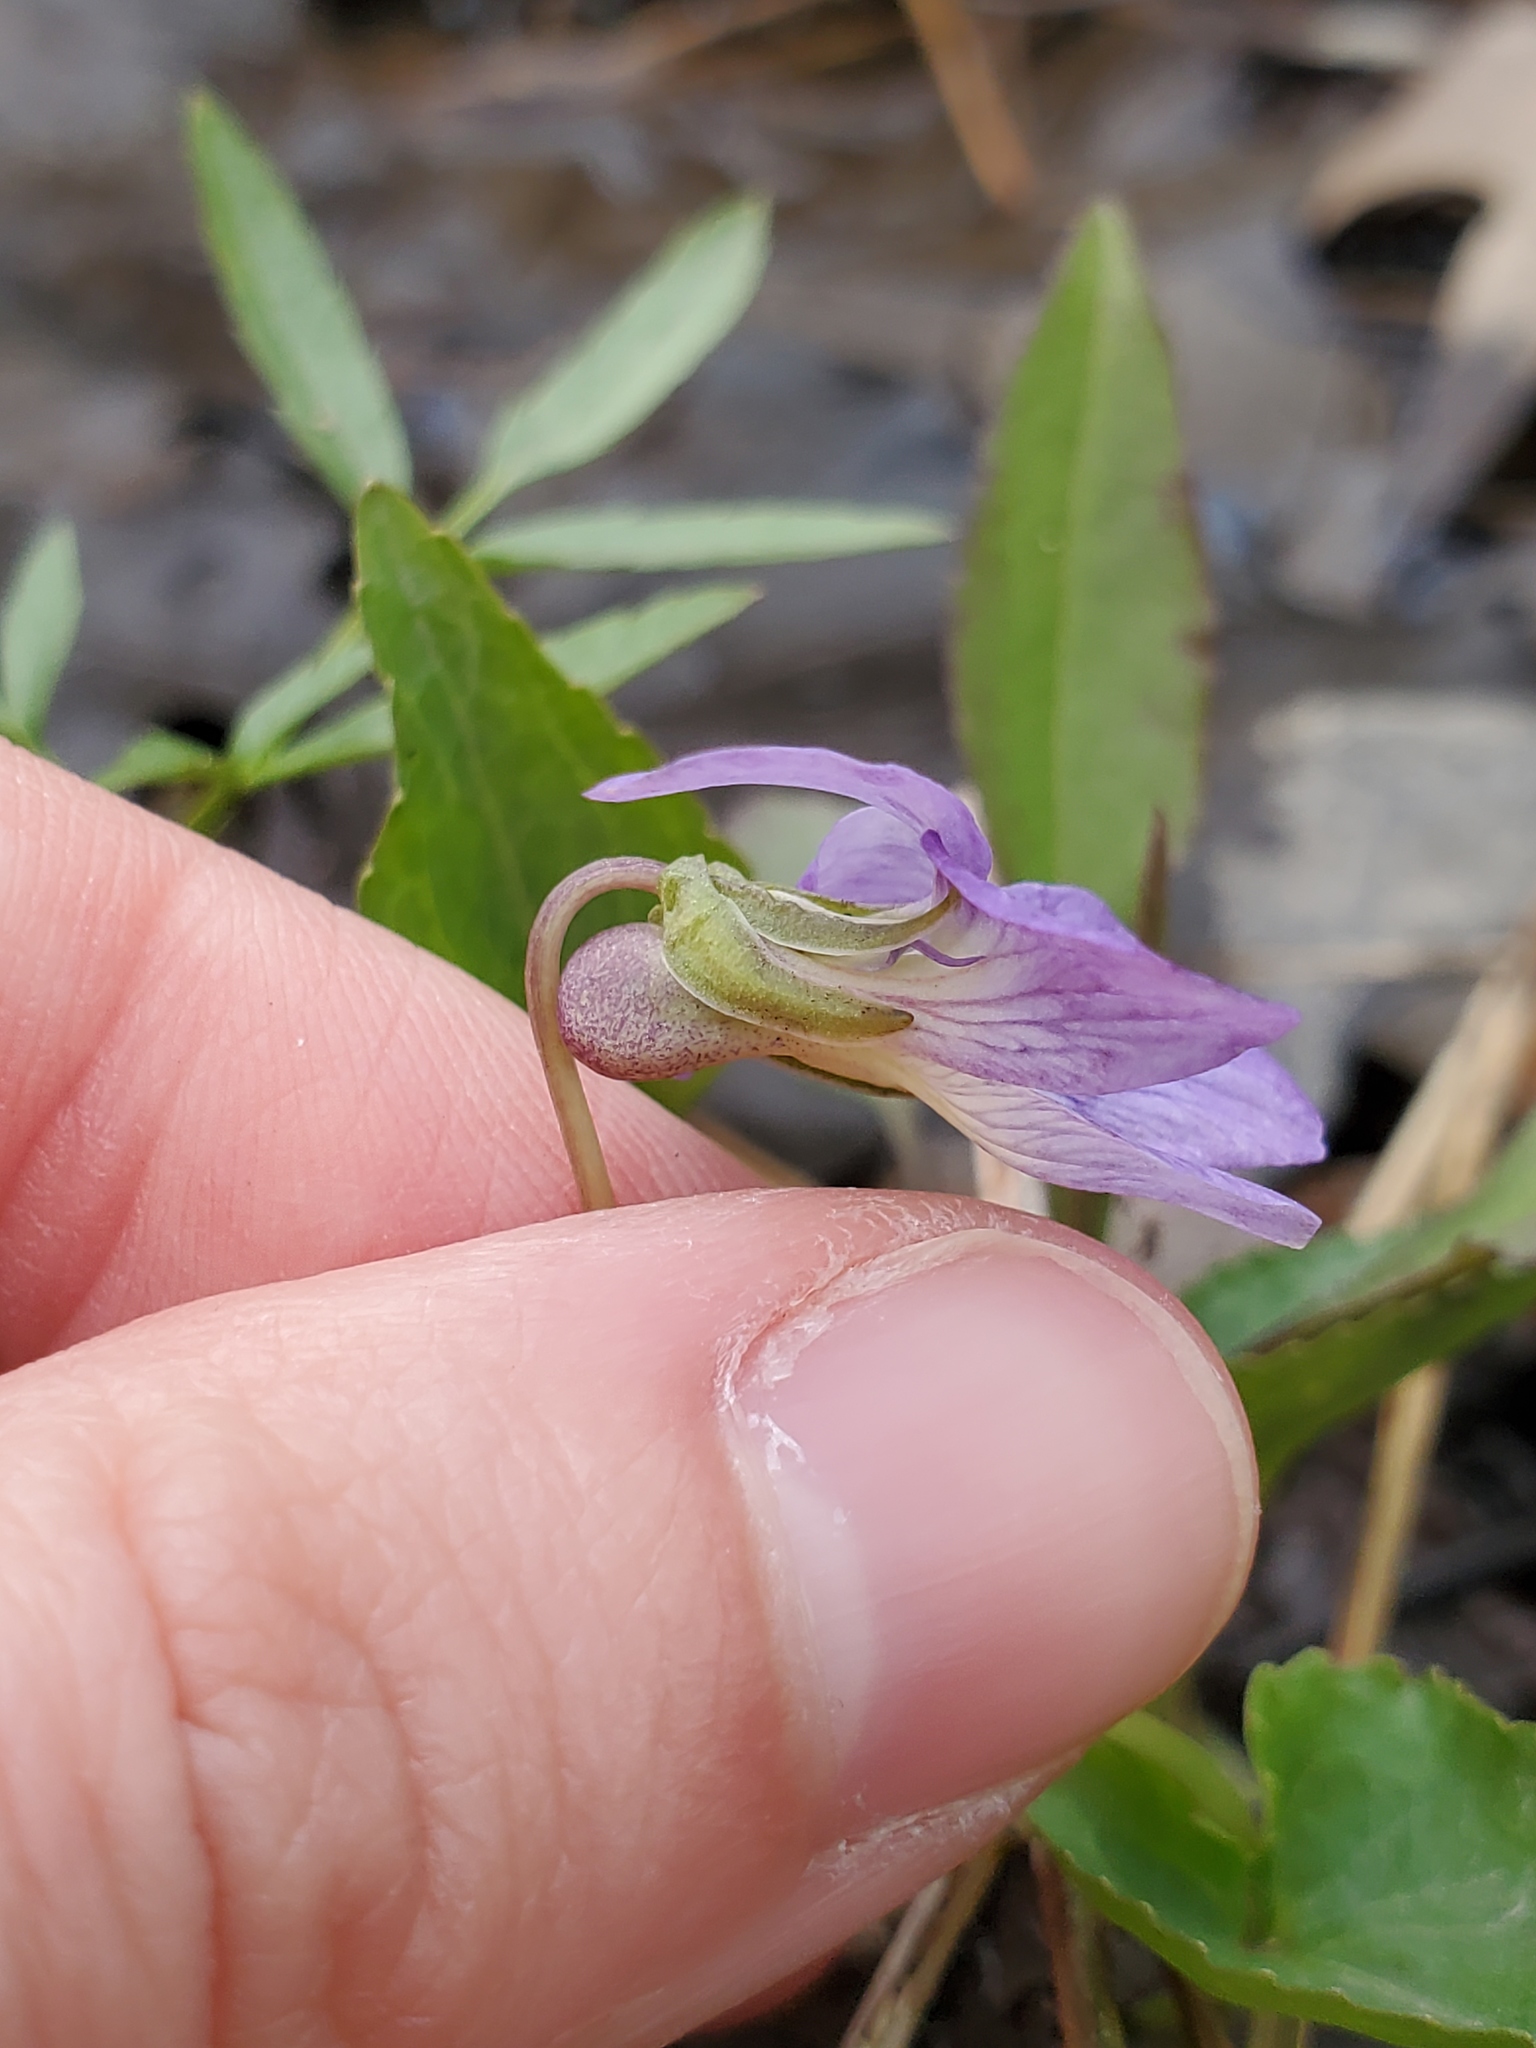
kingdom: Plantae
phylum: Tracheophyta
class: Magnoliopsida
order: Malpighiales
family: Violaceae
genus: Viola
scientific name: Viola cucullata
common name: Marsh blue violet
